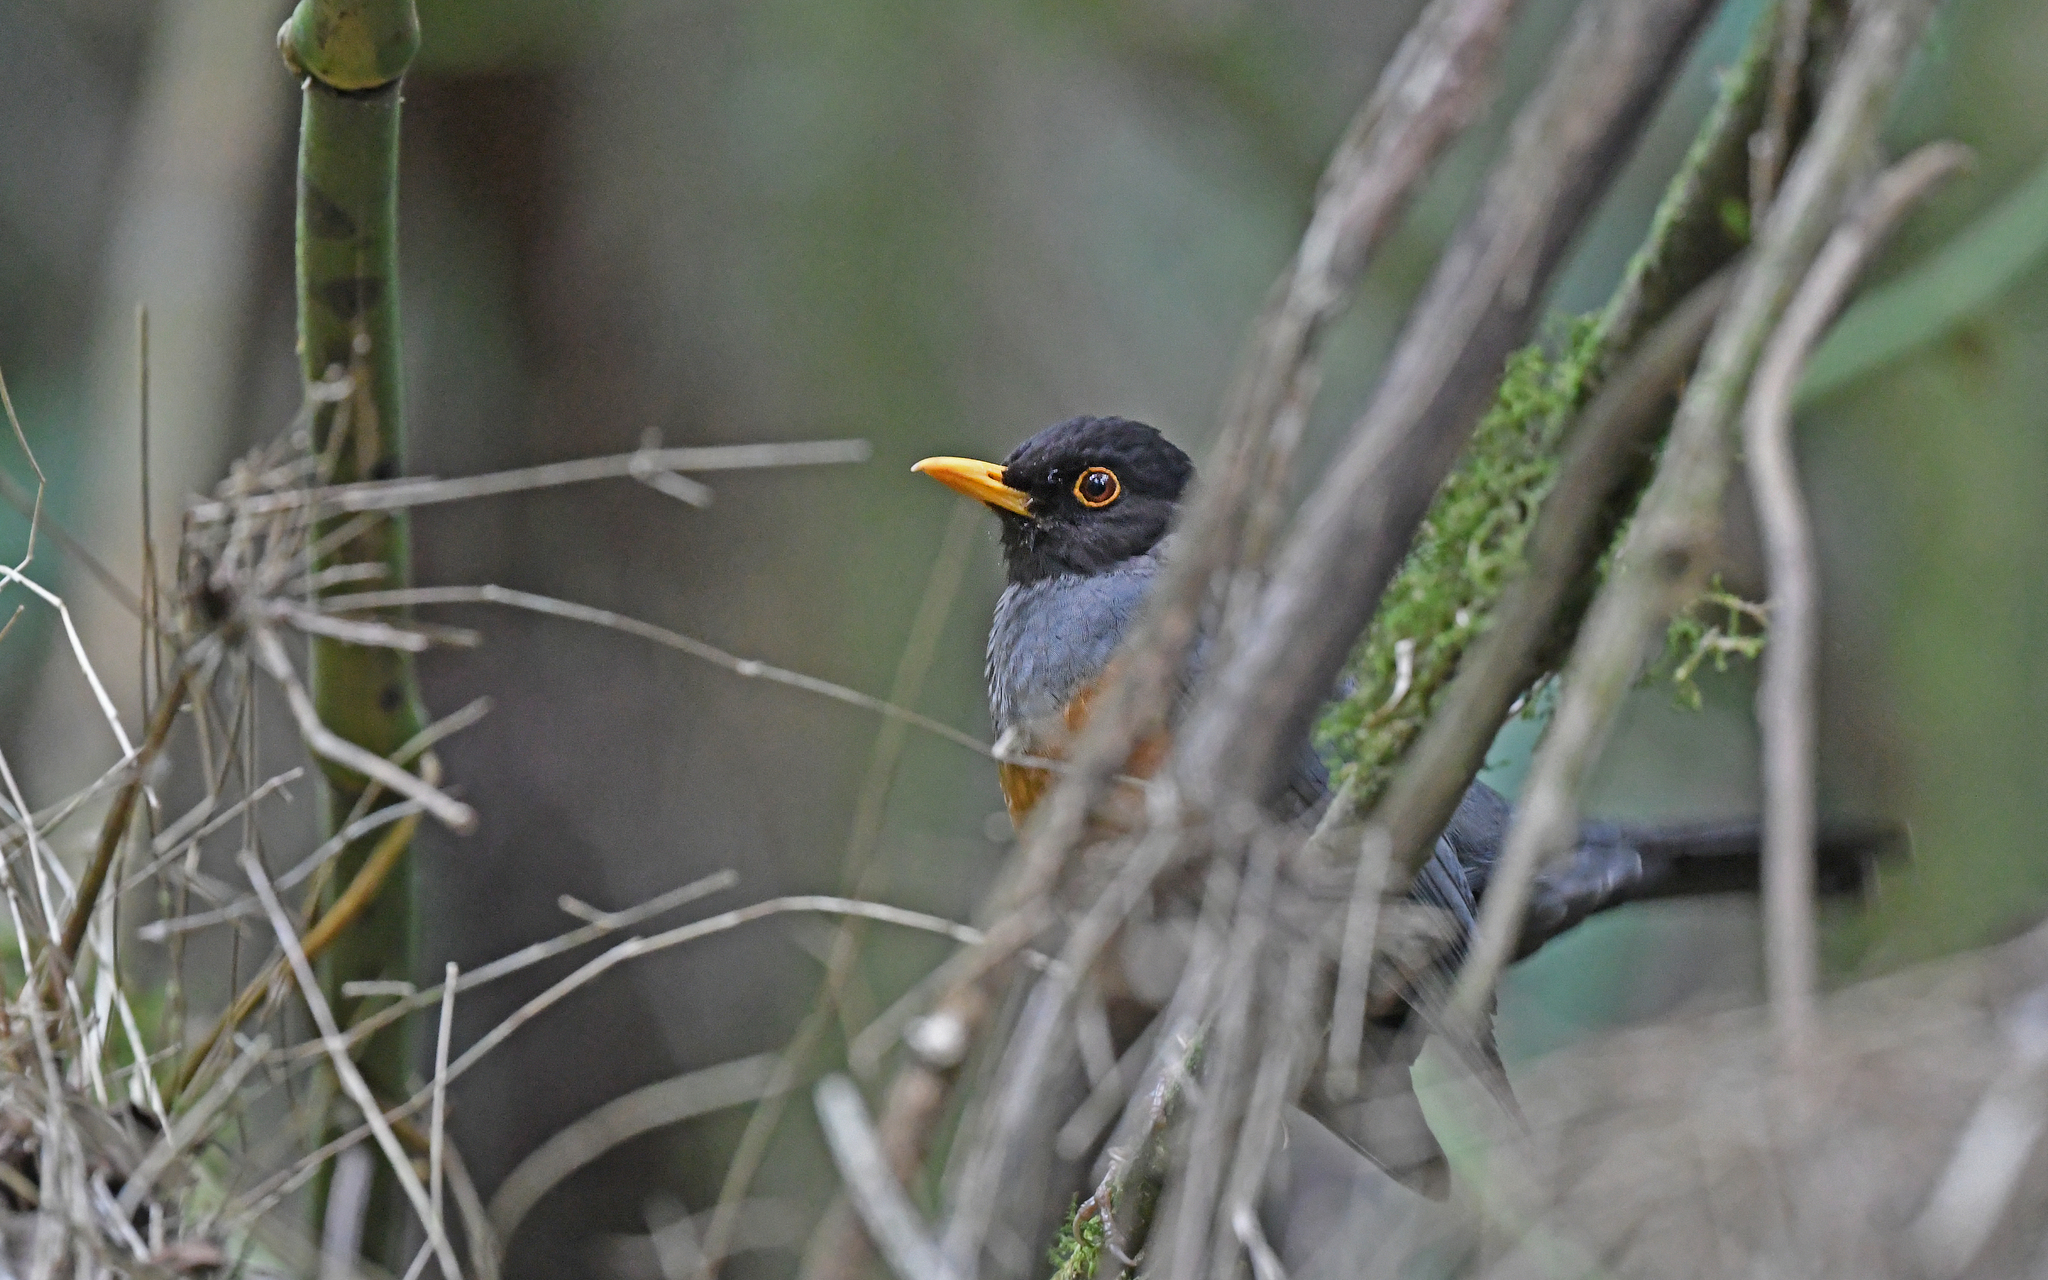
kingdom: Animalia
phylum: Chordata
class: Aves
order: Passeriformes
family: Turdidae
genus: Turdus
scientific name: Turdus fulviventris
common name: Chestnut-bellied thrush
